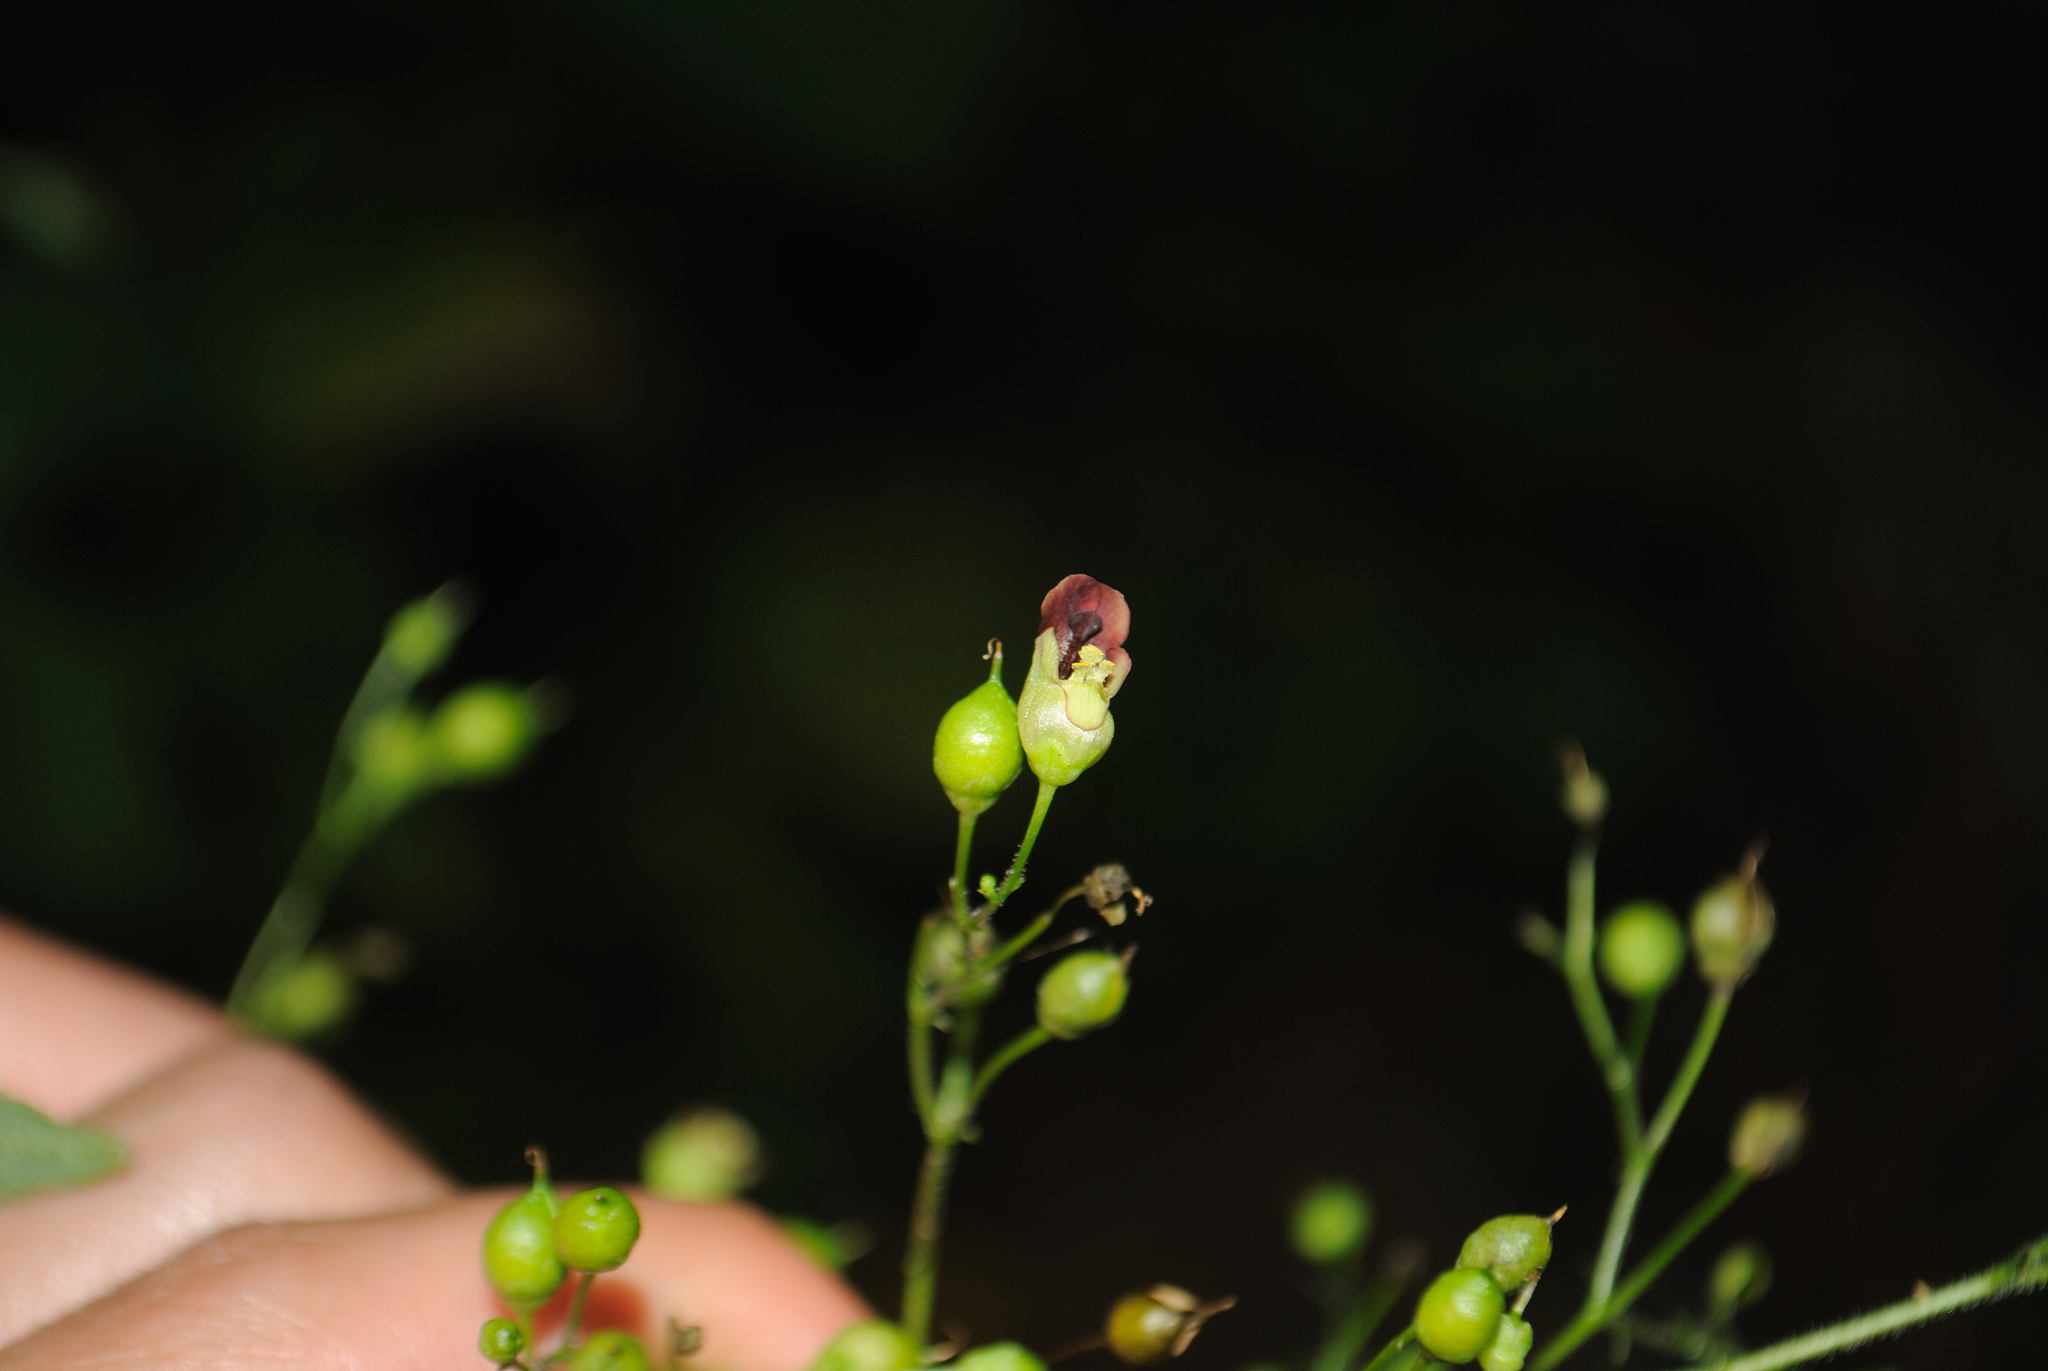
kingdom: Plantae
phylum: Tracheophyta
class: Magnoliopsida
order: Lamiales
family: Scrophulariaceae
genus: Scrophularia
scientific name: Scrophularia marilandica
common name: Eastern figwort
